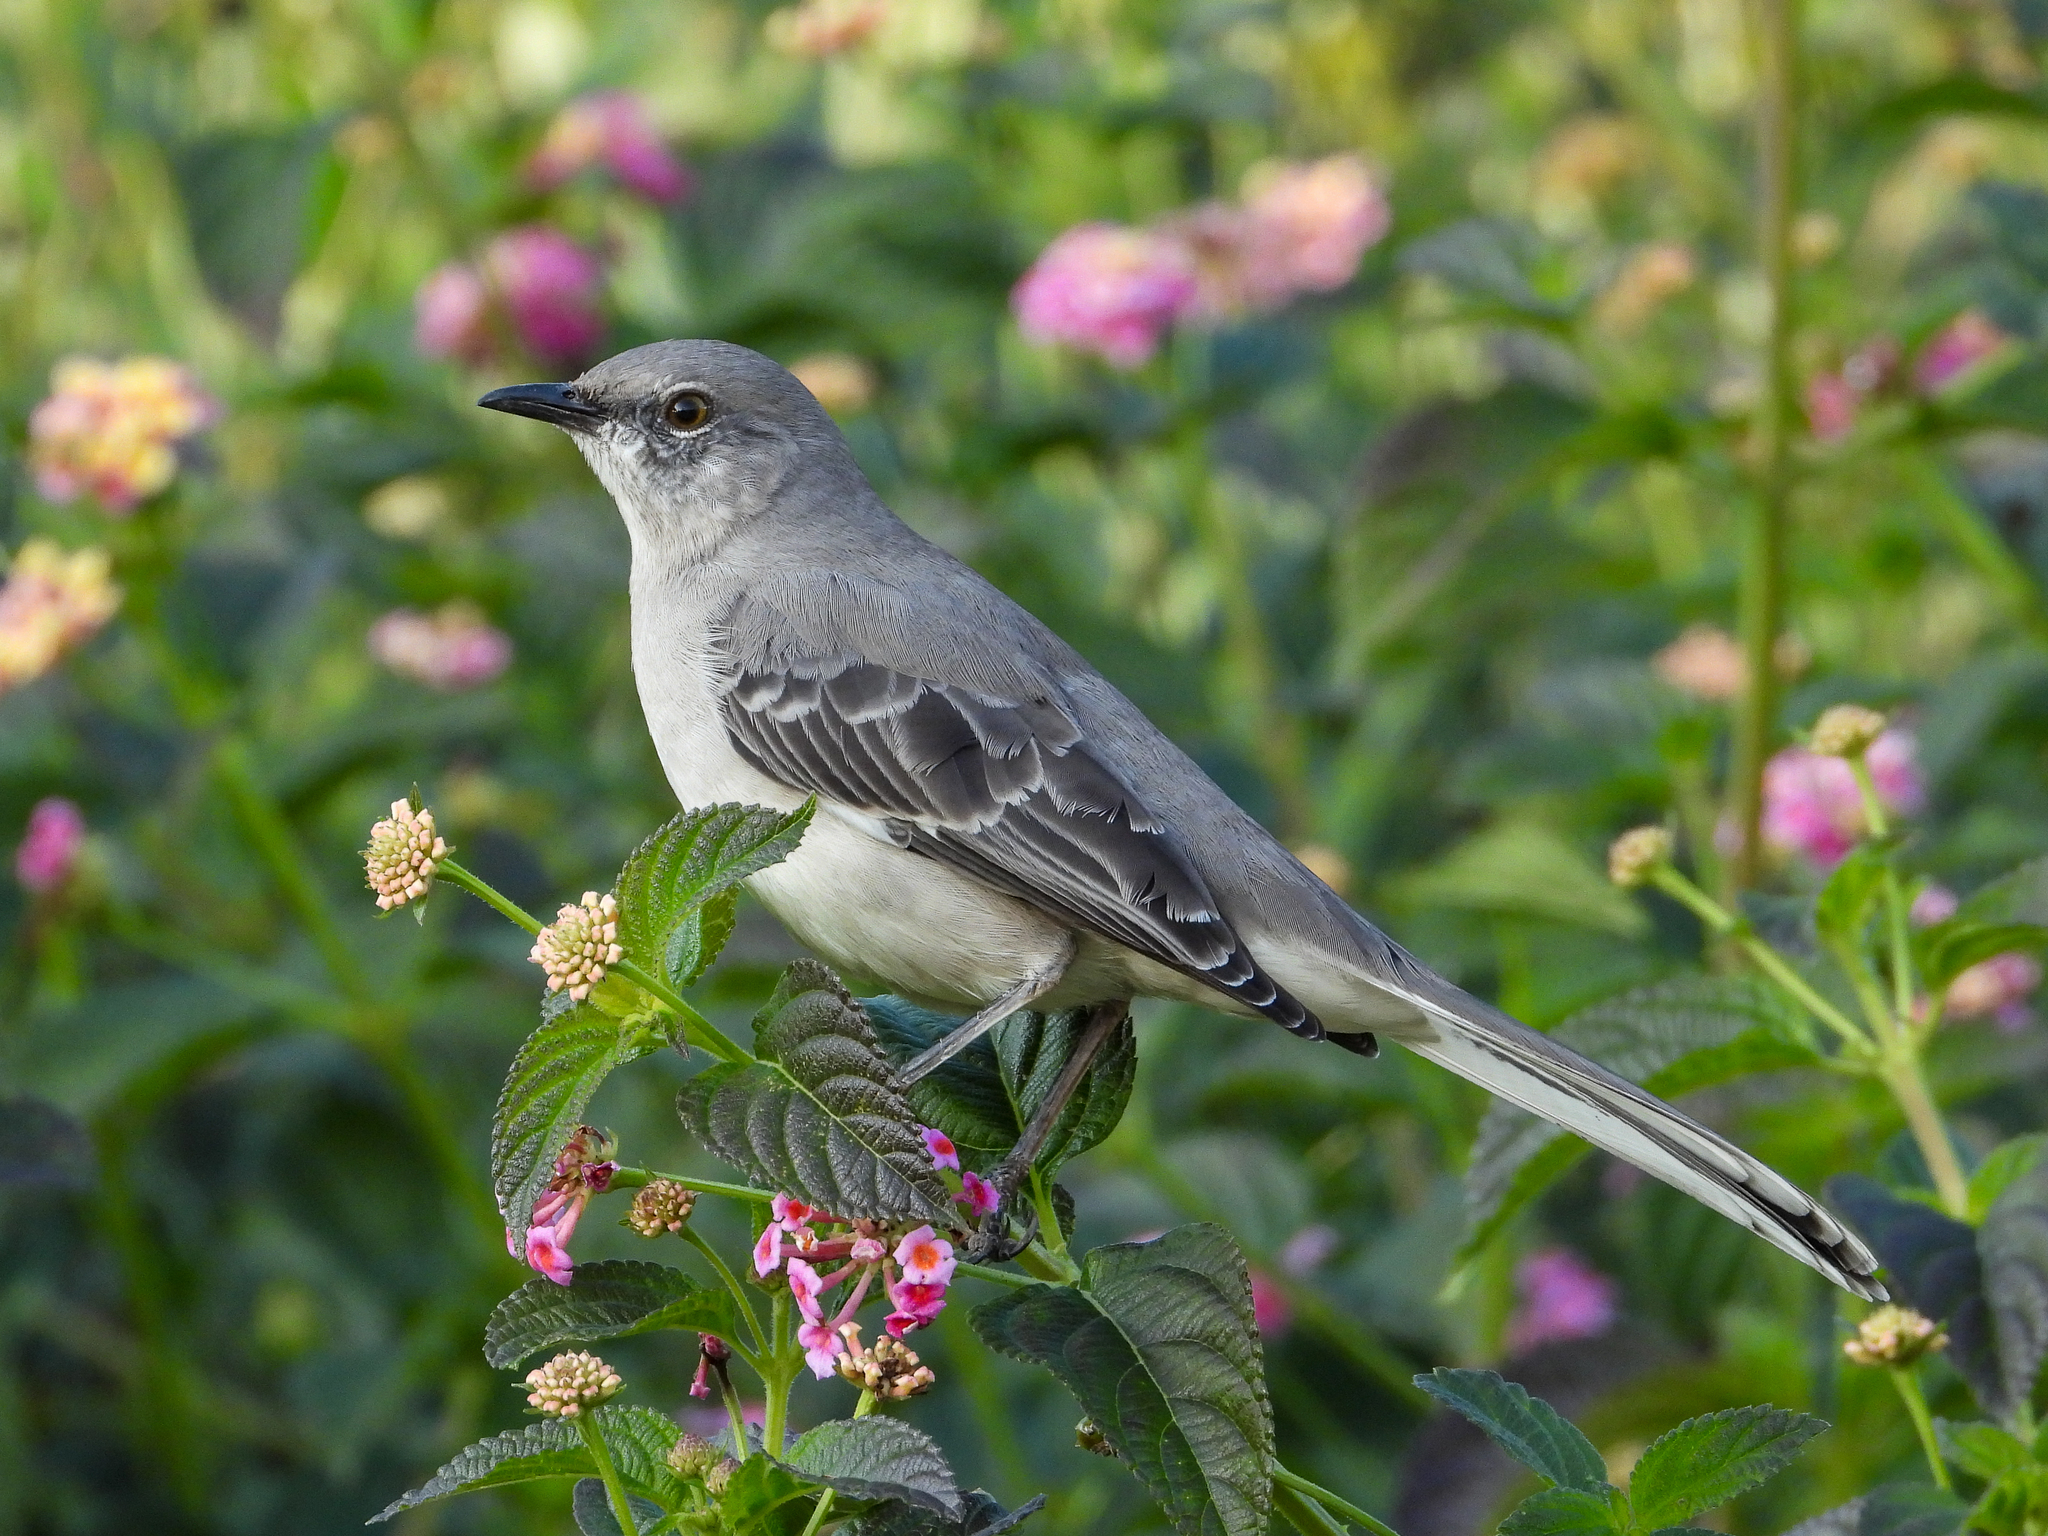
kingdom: Animalia
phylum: Chordata
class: Aves
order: Passeriformes
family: Mimidae
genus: Mimus
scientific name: Mimus polyglottos
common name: Northern mockingbird
